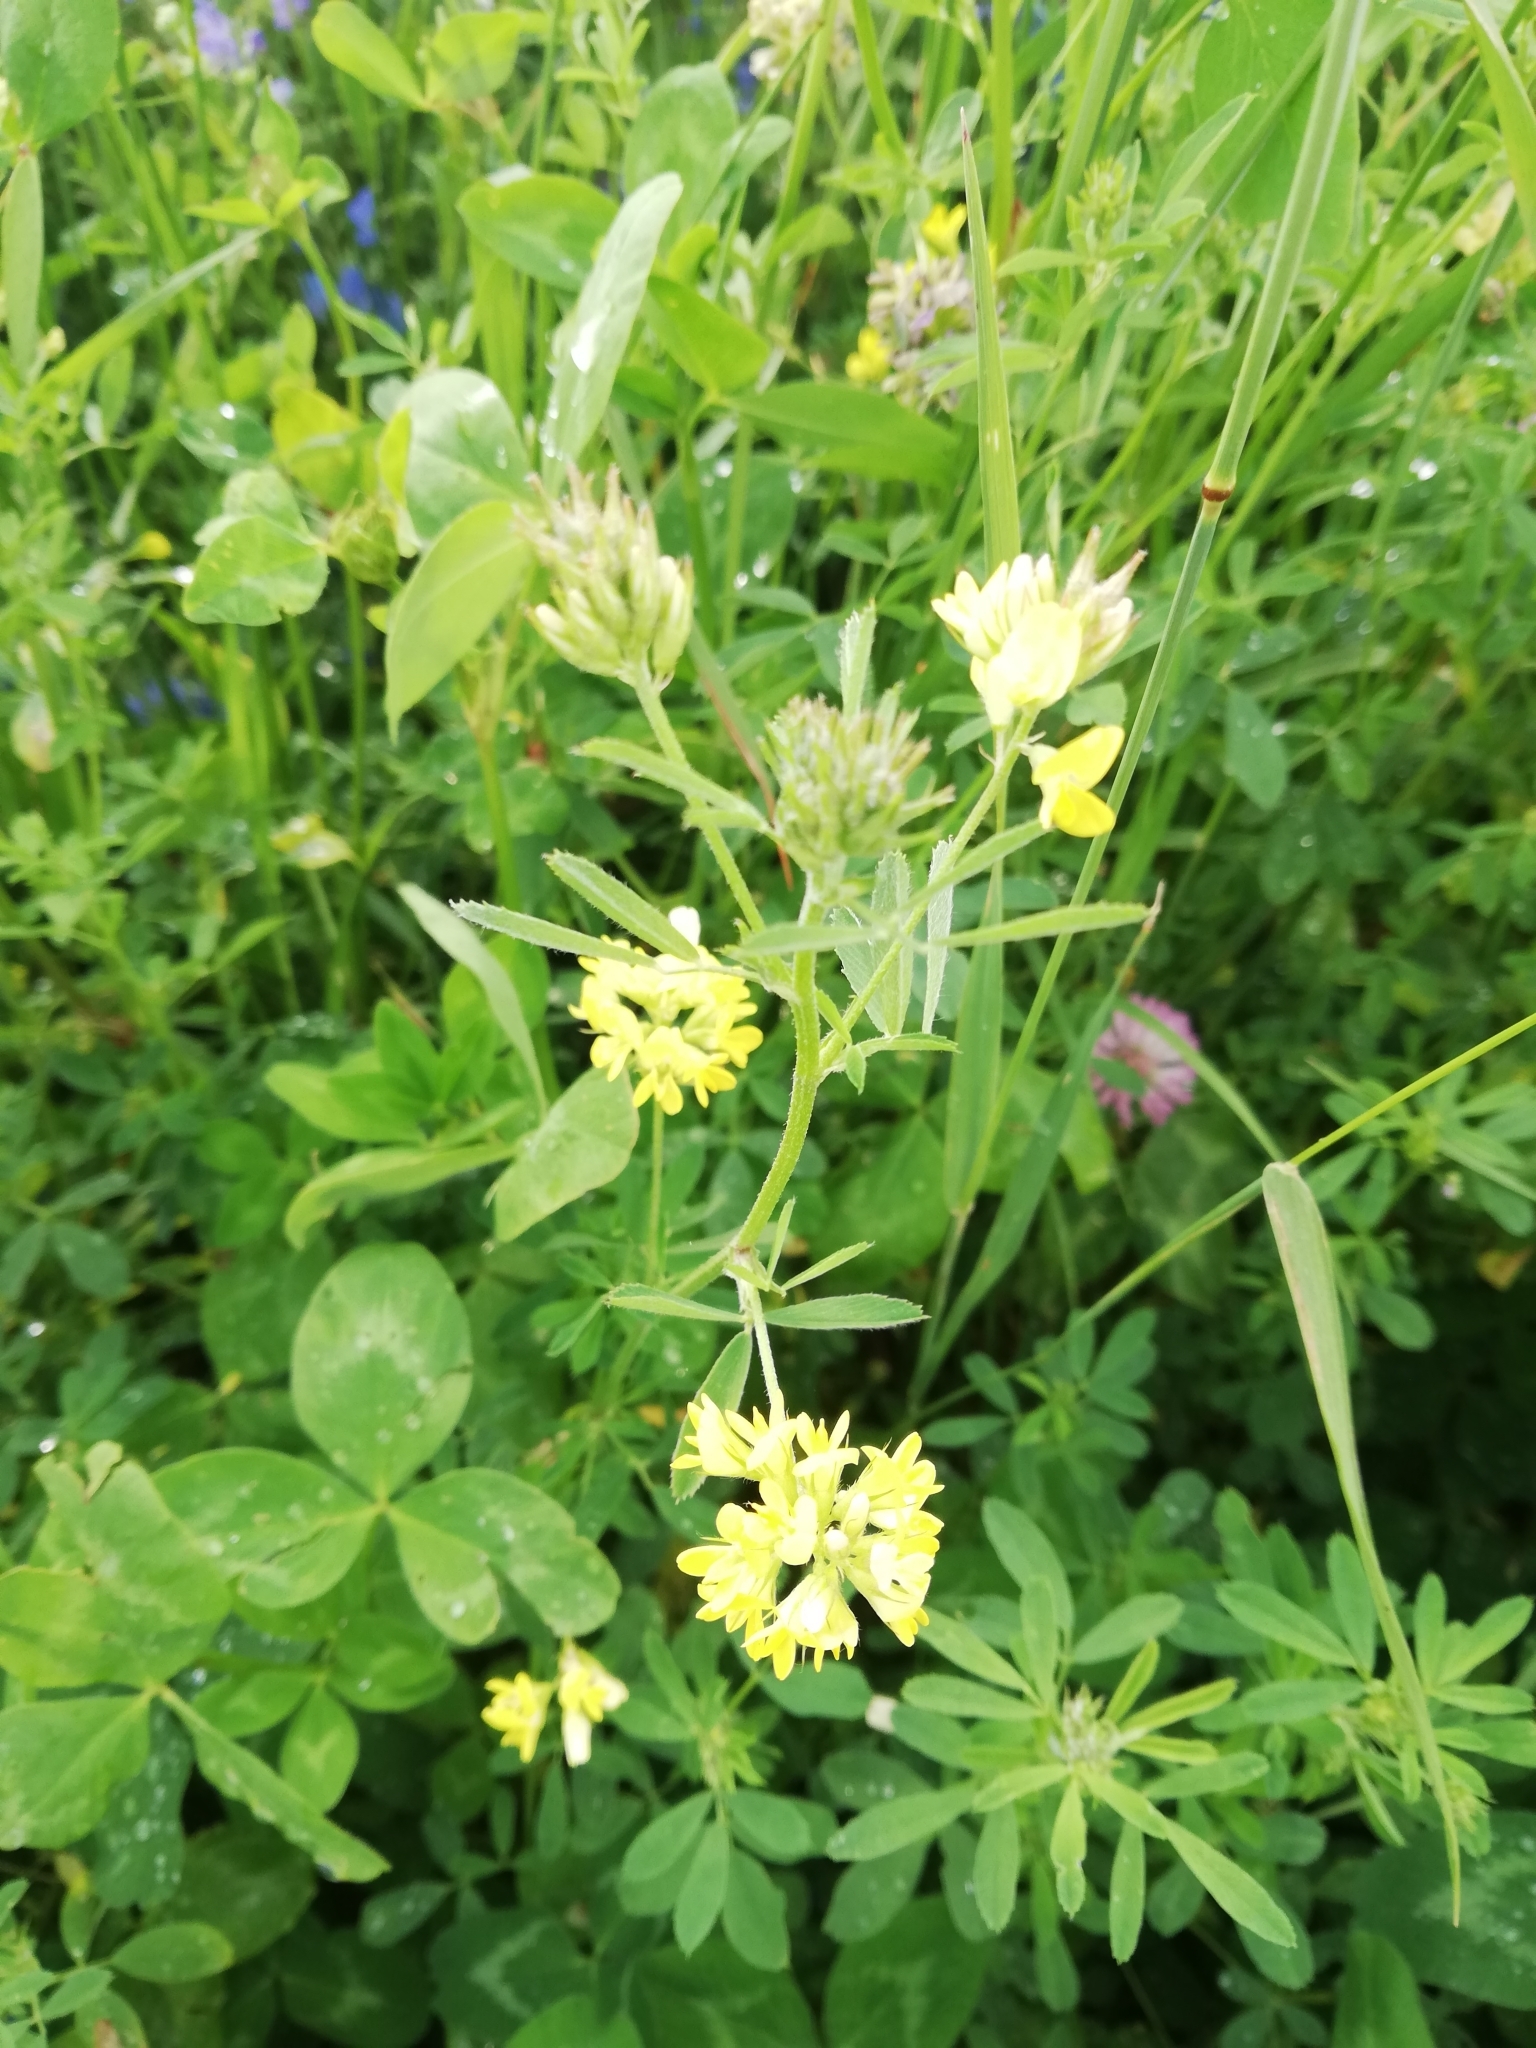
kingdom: Plantae
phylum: Tracheophyta
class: Magnoliopsida
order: Fabales
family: Fabaceae
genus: Medicago
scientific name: Medicago varia
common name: Sand lucerne
